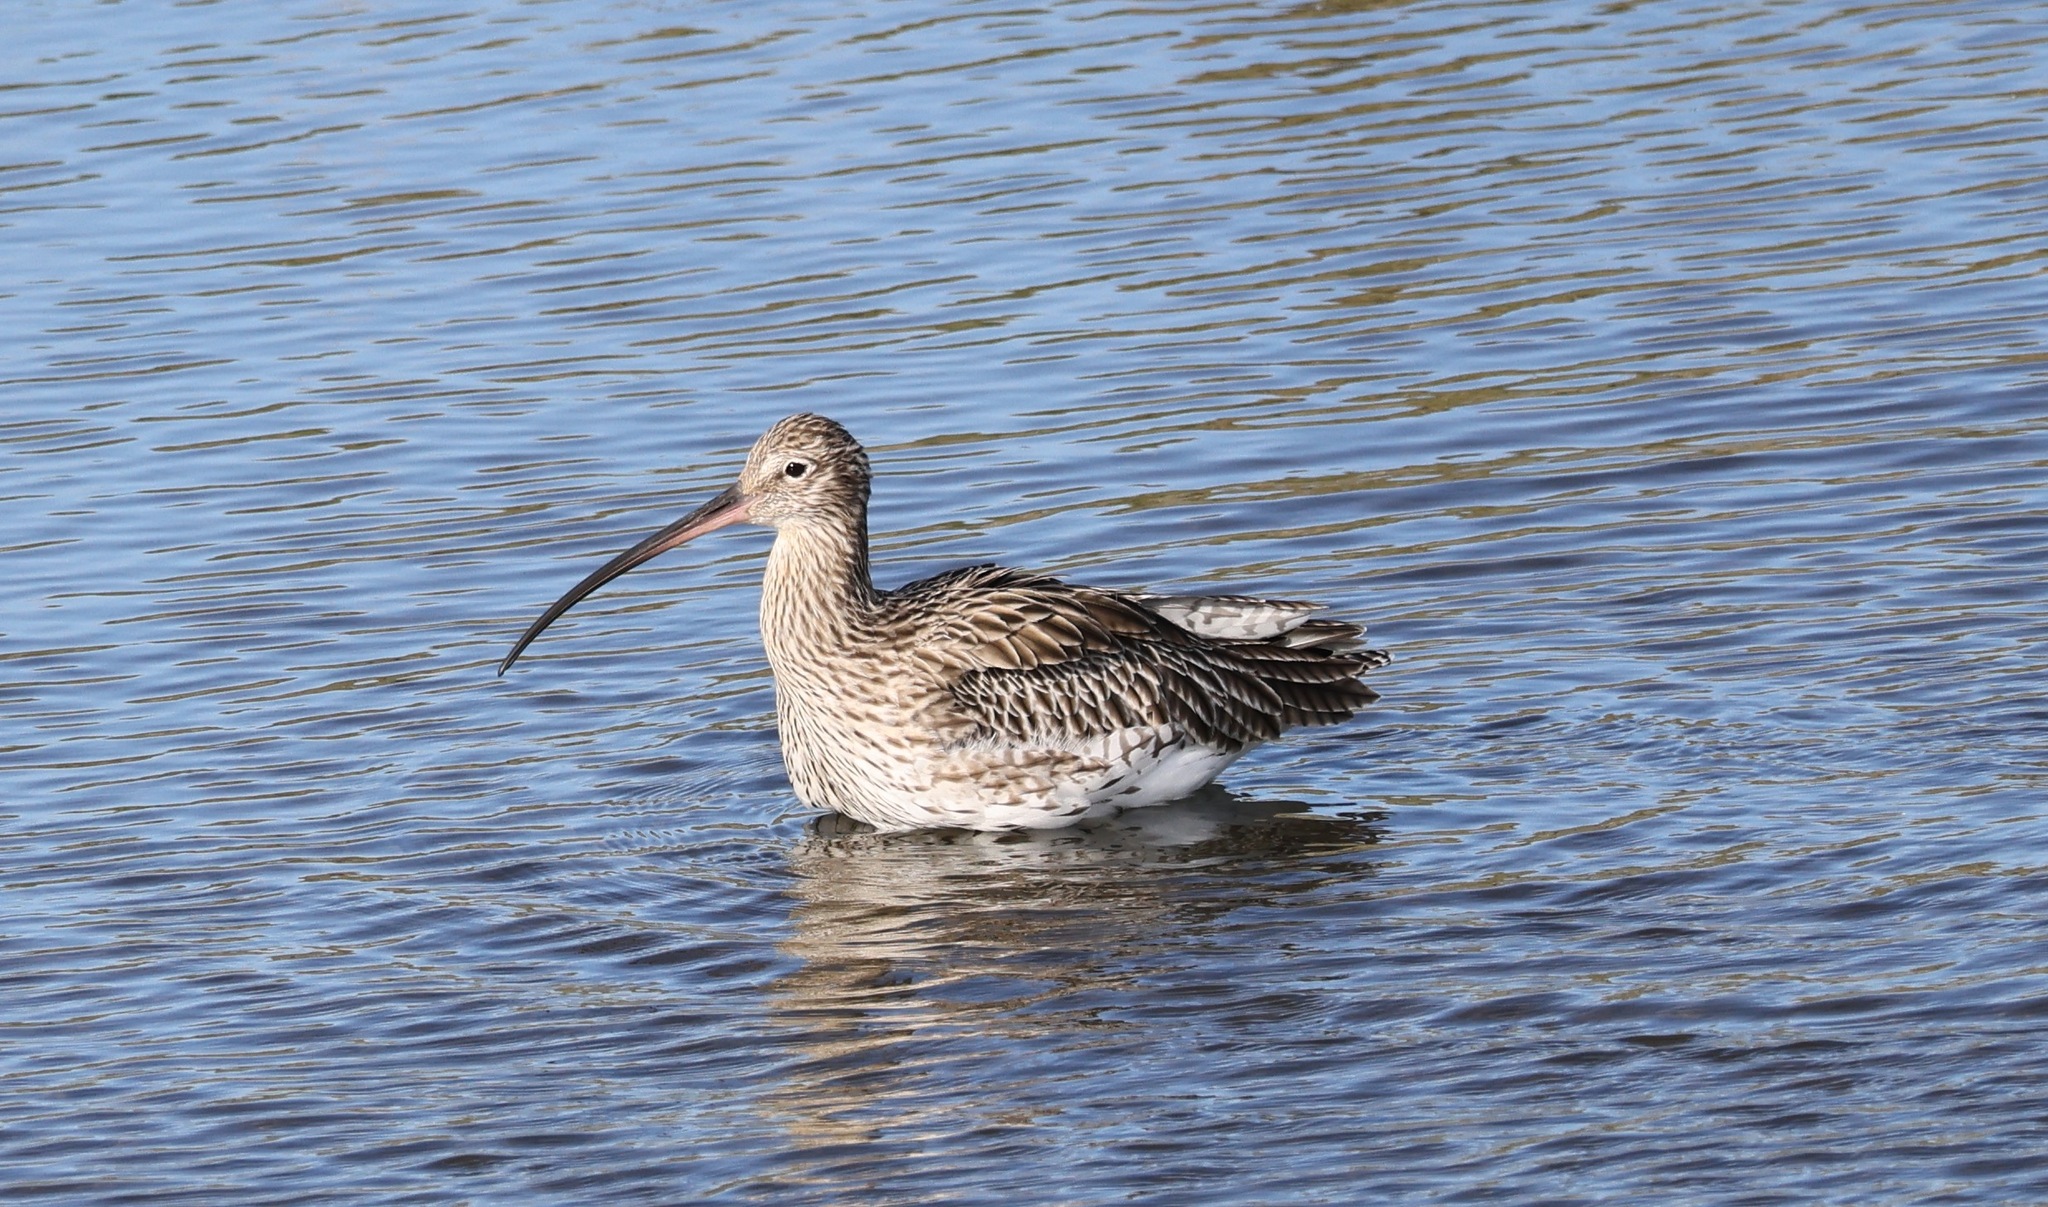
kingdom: Animalia
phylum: Chordata
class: Aves
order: Charadriiformes
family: Scolopacidae
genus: Numenius
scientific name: Numenius arquata
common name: Eurasian curlew
